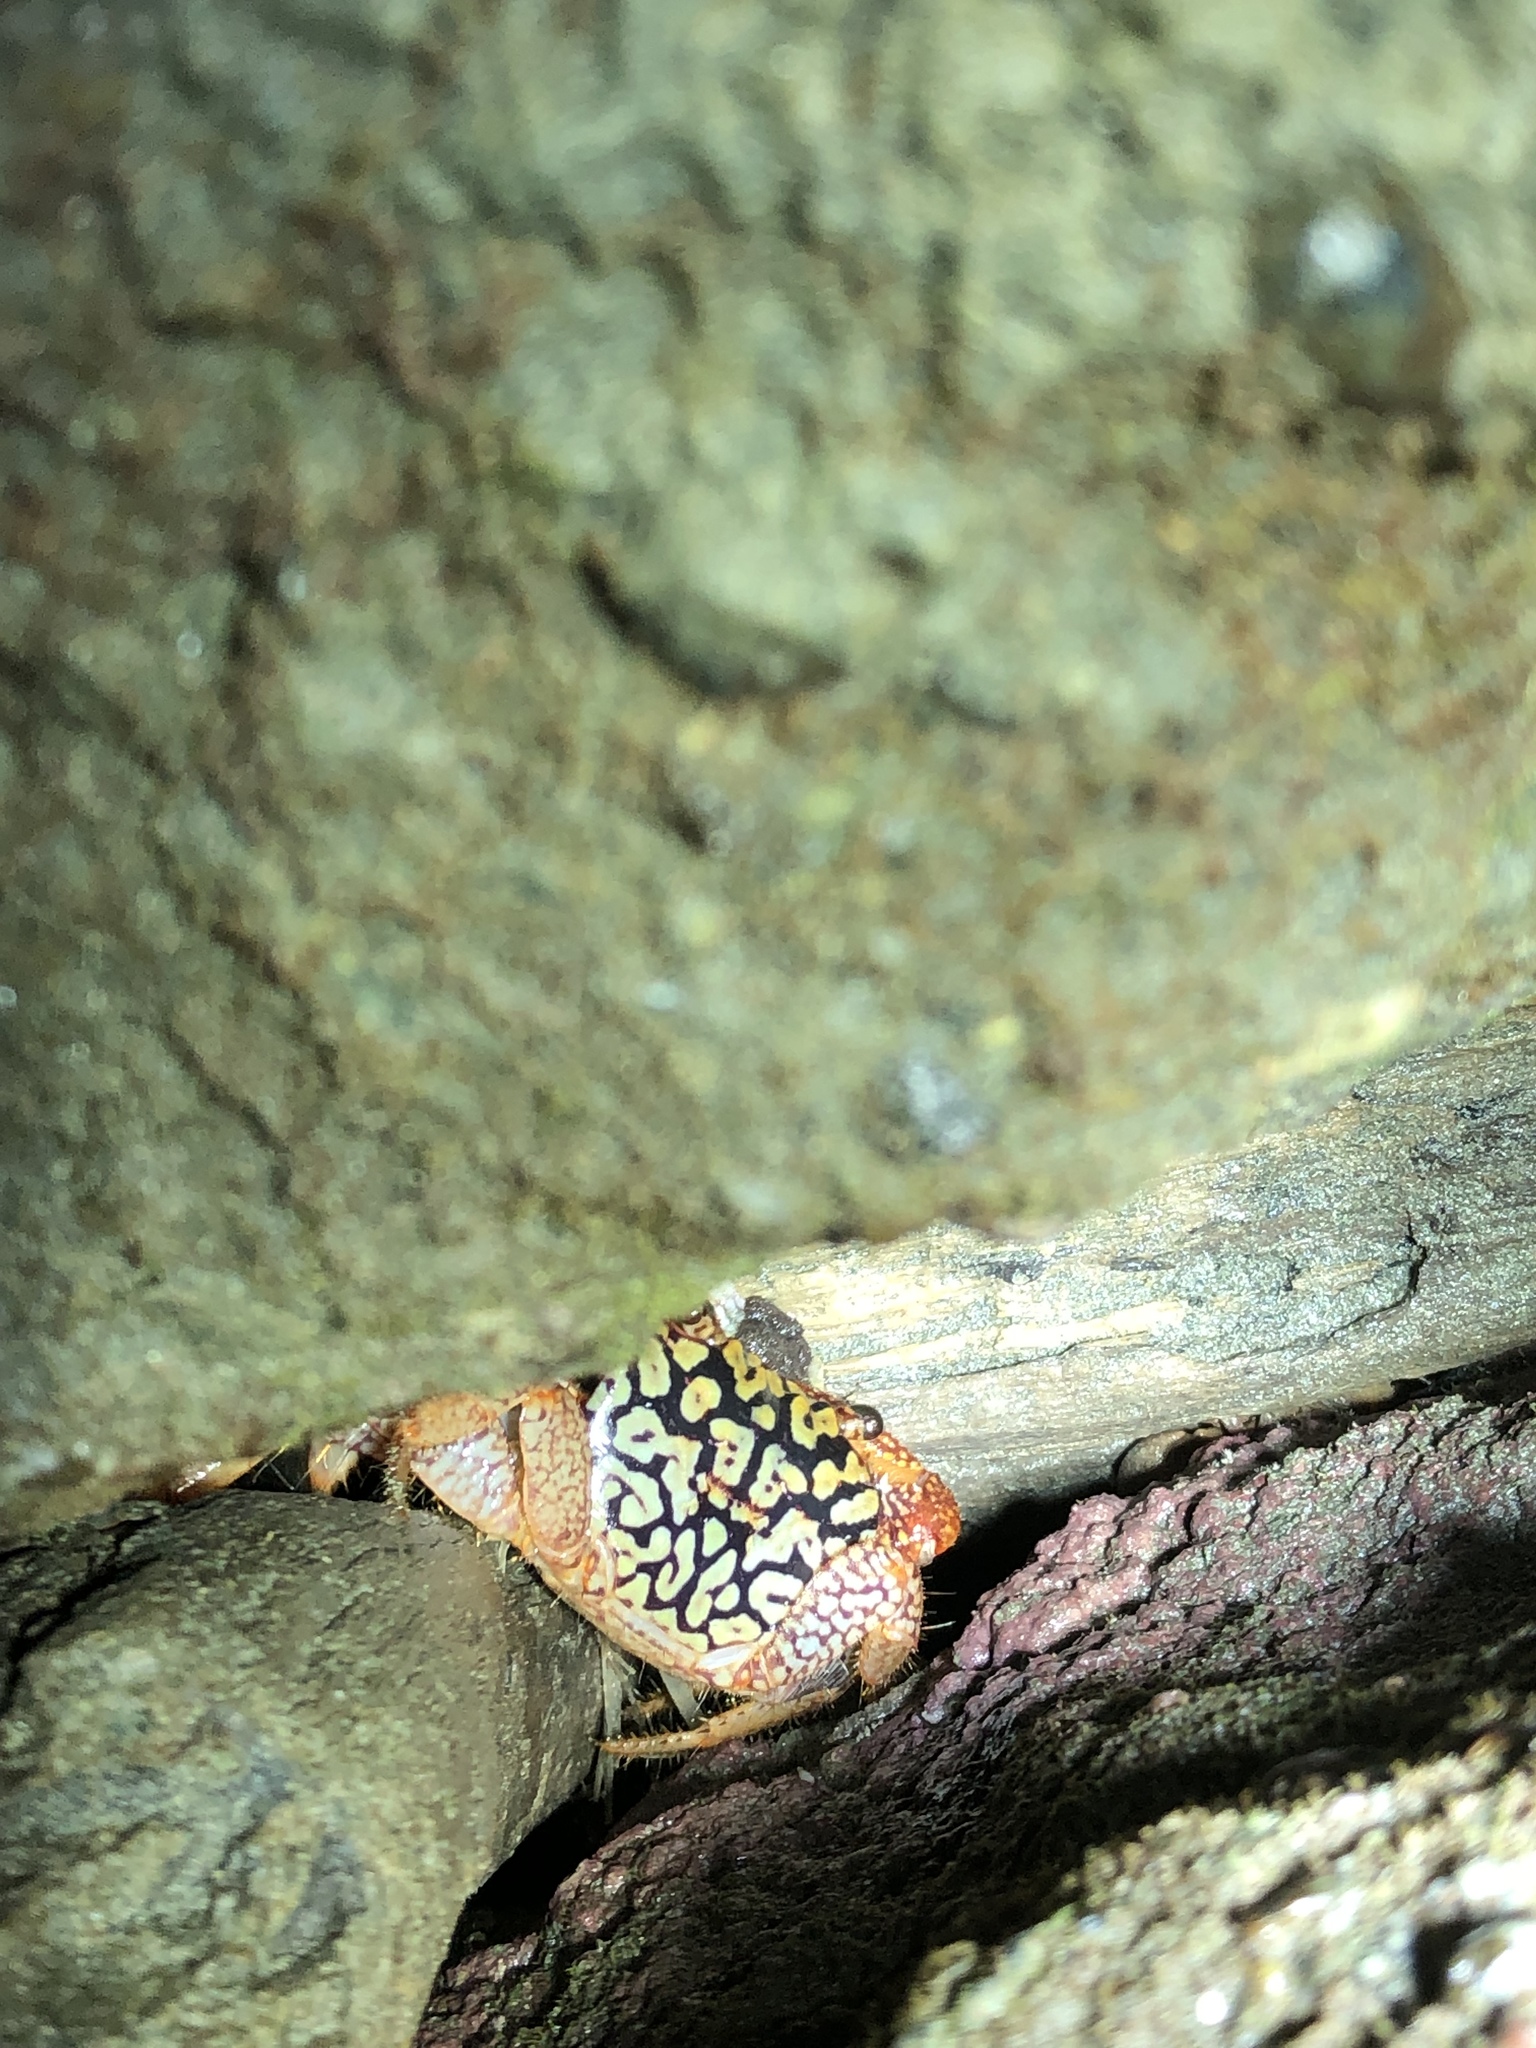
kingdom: Animalia
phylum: Arthropoda
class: Malacostraca
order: Decapoda
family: Grapsidae
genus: Geograpsus
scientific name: Geograpsus lividus
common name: Variegate shore crab
